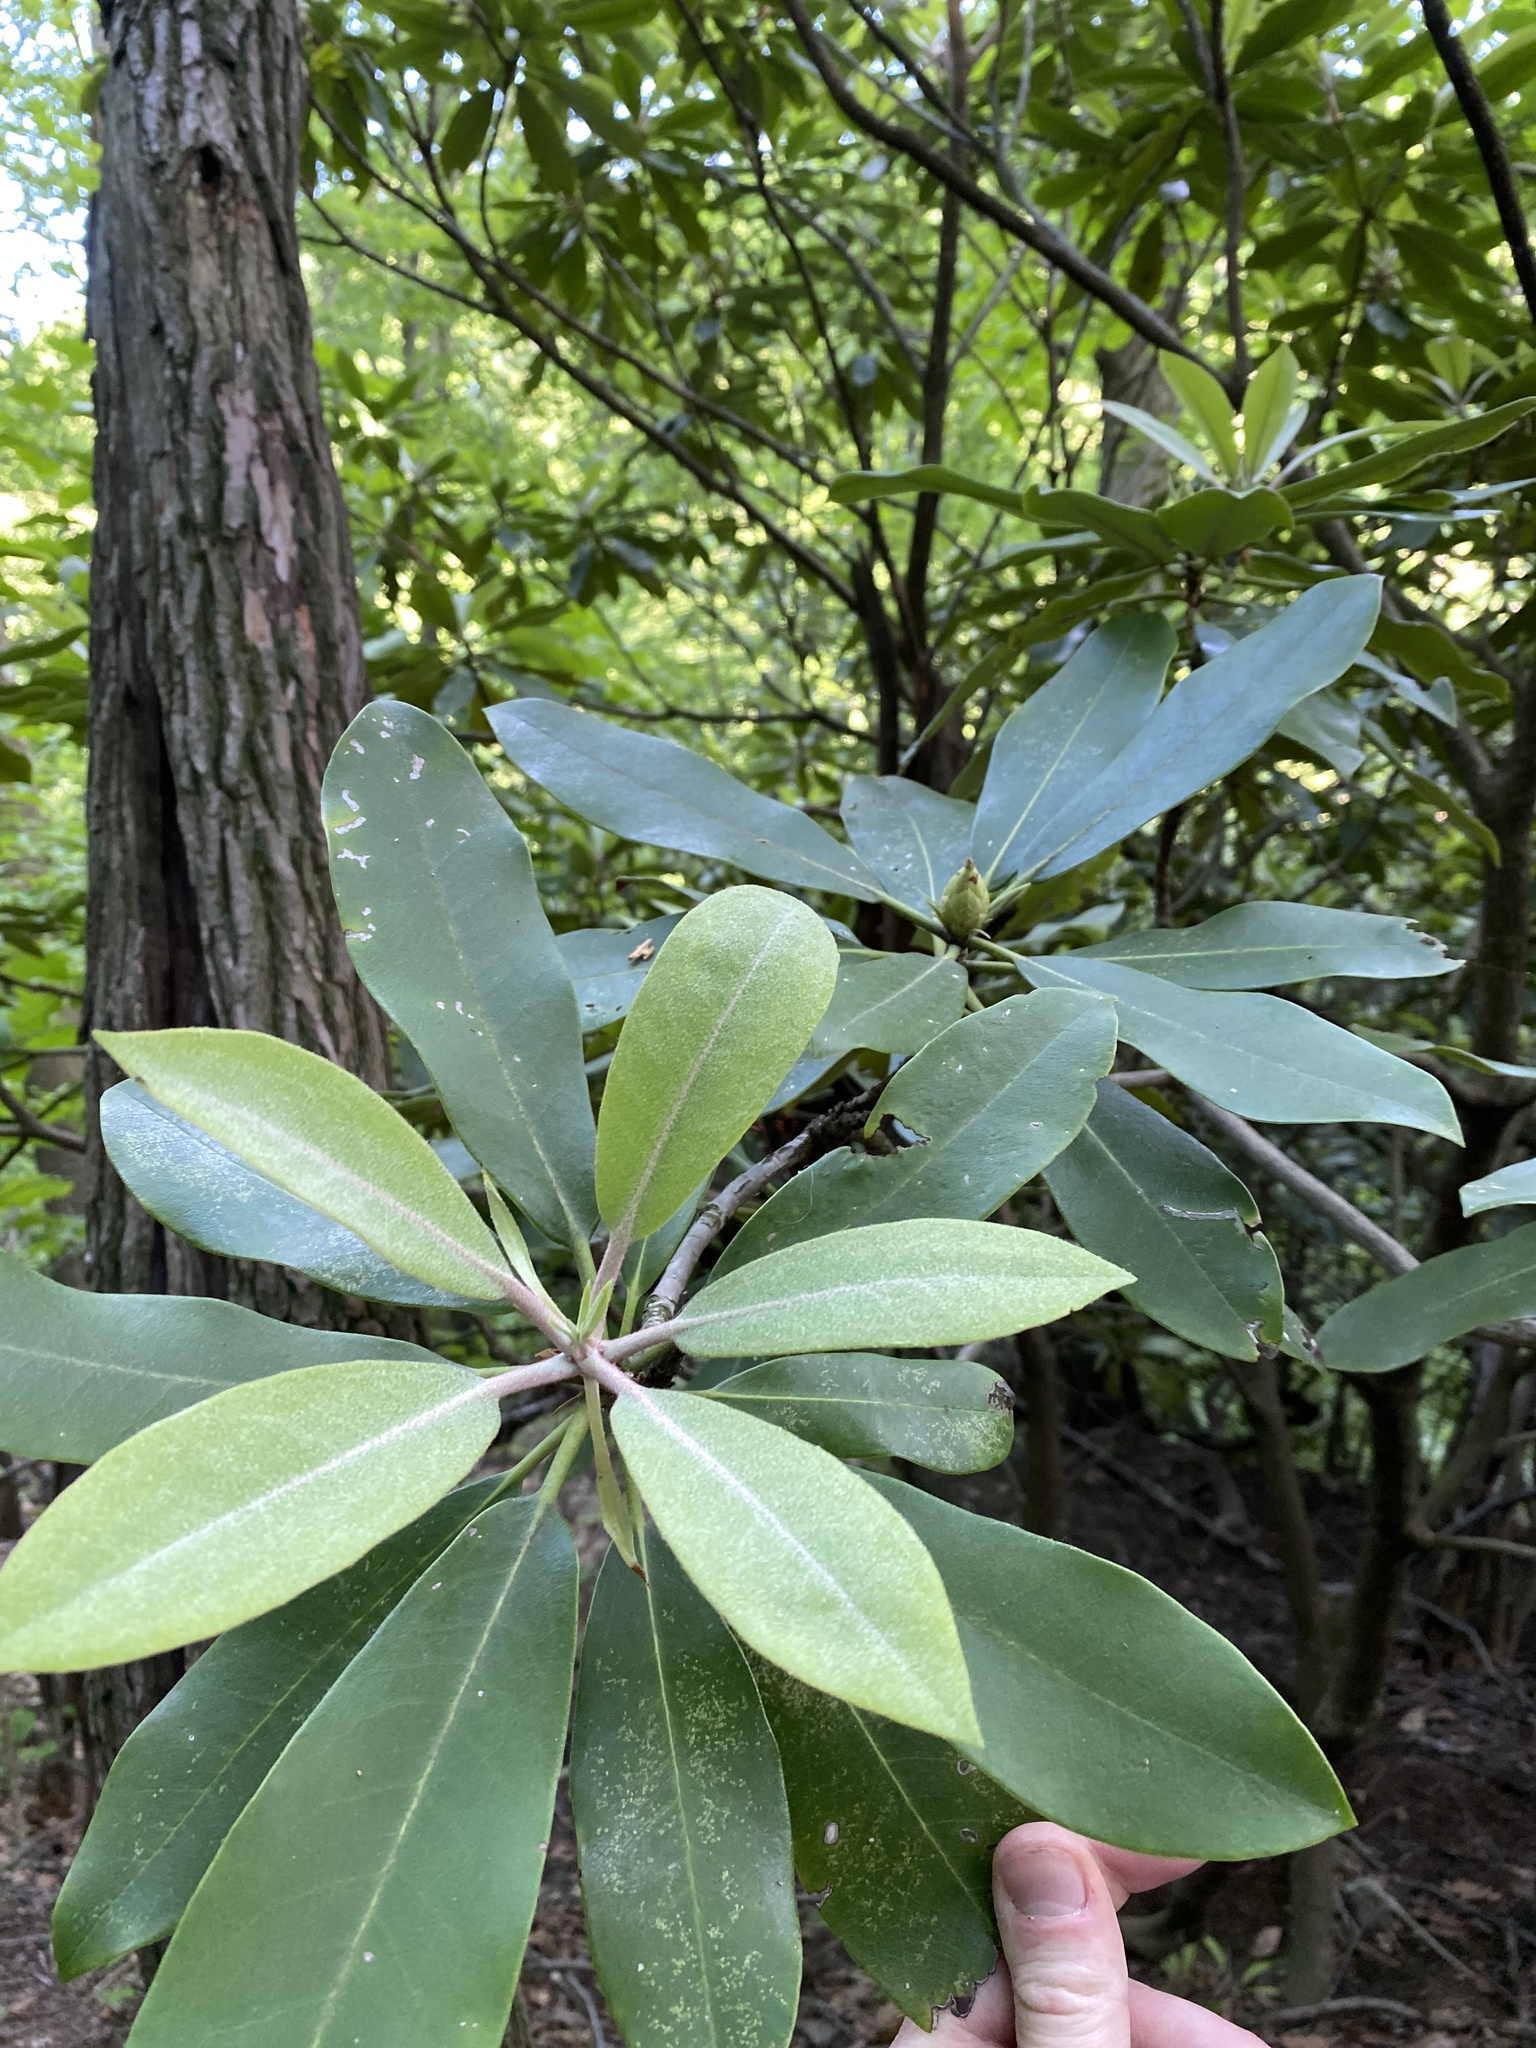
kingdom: Plantae
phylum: Tracheophyta
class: Magnoliopsida
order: Ericales
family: Ericaceae
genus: Rhododendron
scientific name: Rhododendron maximum
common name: Great rhododendron
